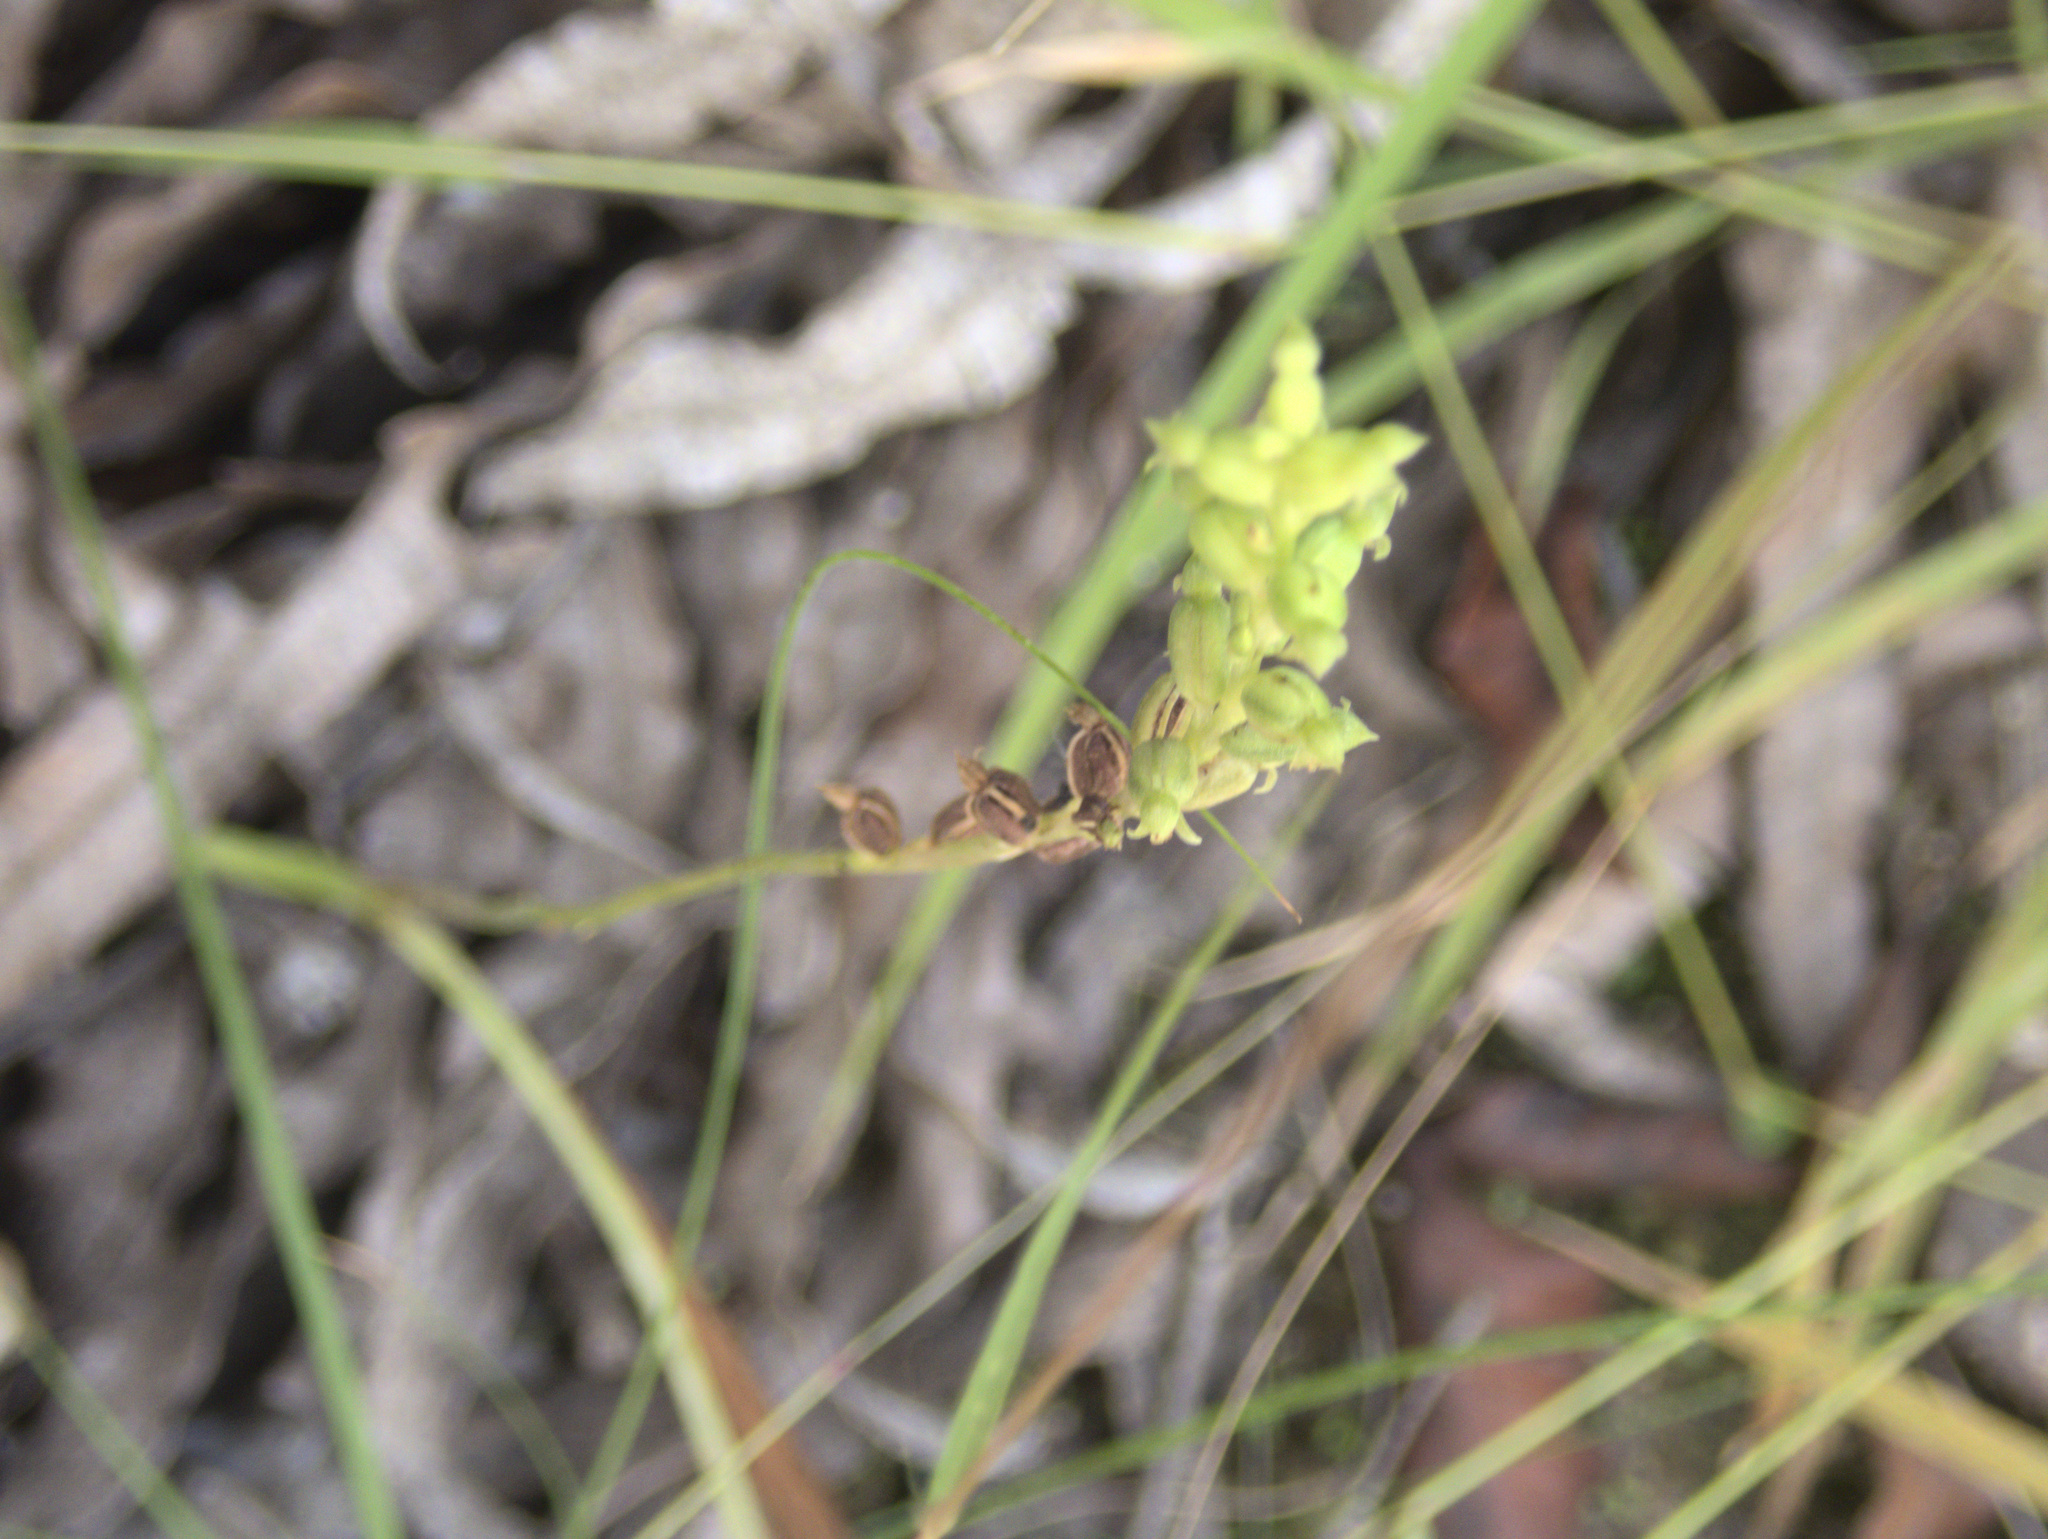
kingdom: Plantae
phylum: Tracheophyta
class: Liliopsida
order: Asparagales
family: Orchidaceae
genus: Microtis
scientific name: Microtis unifolia
